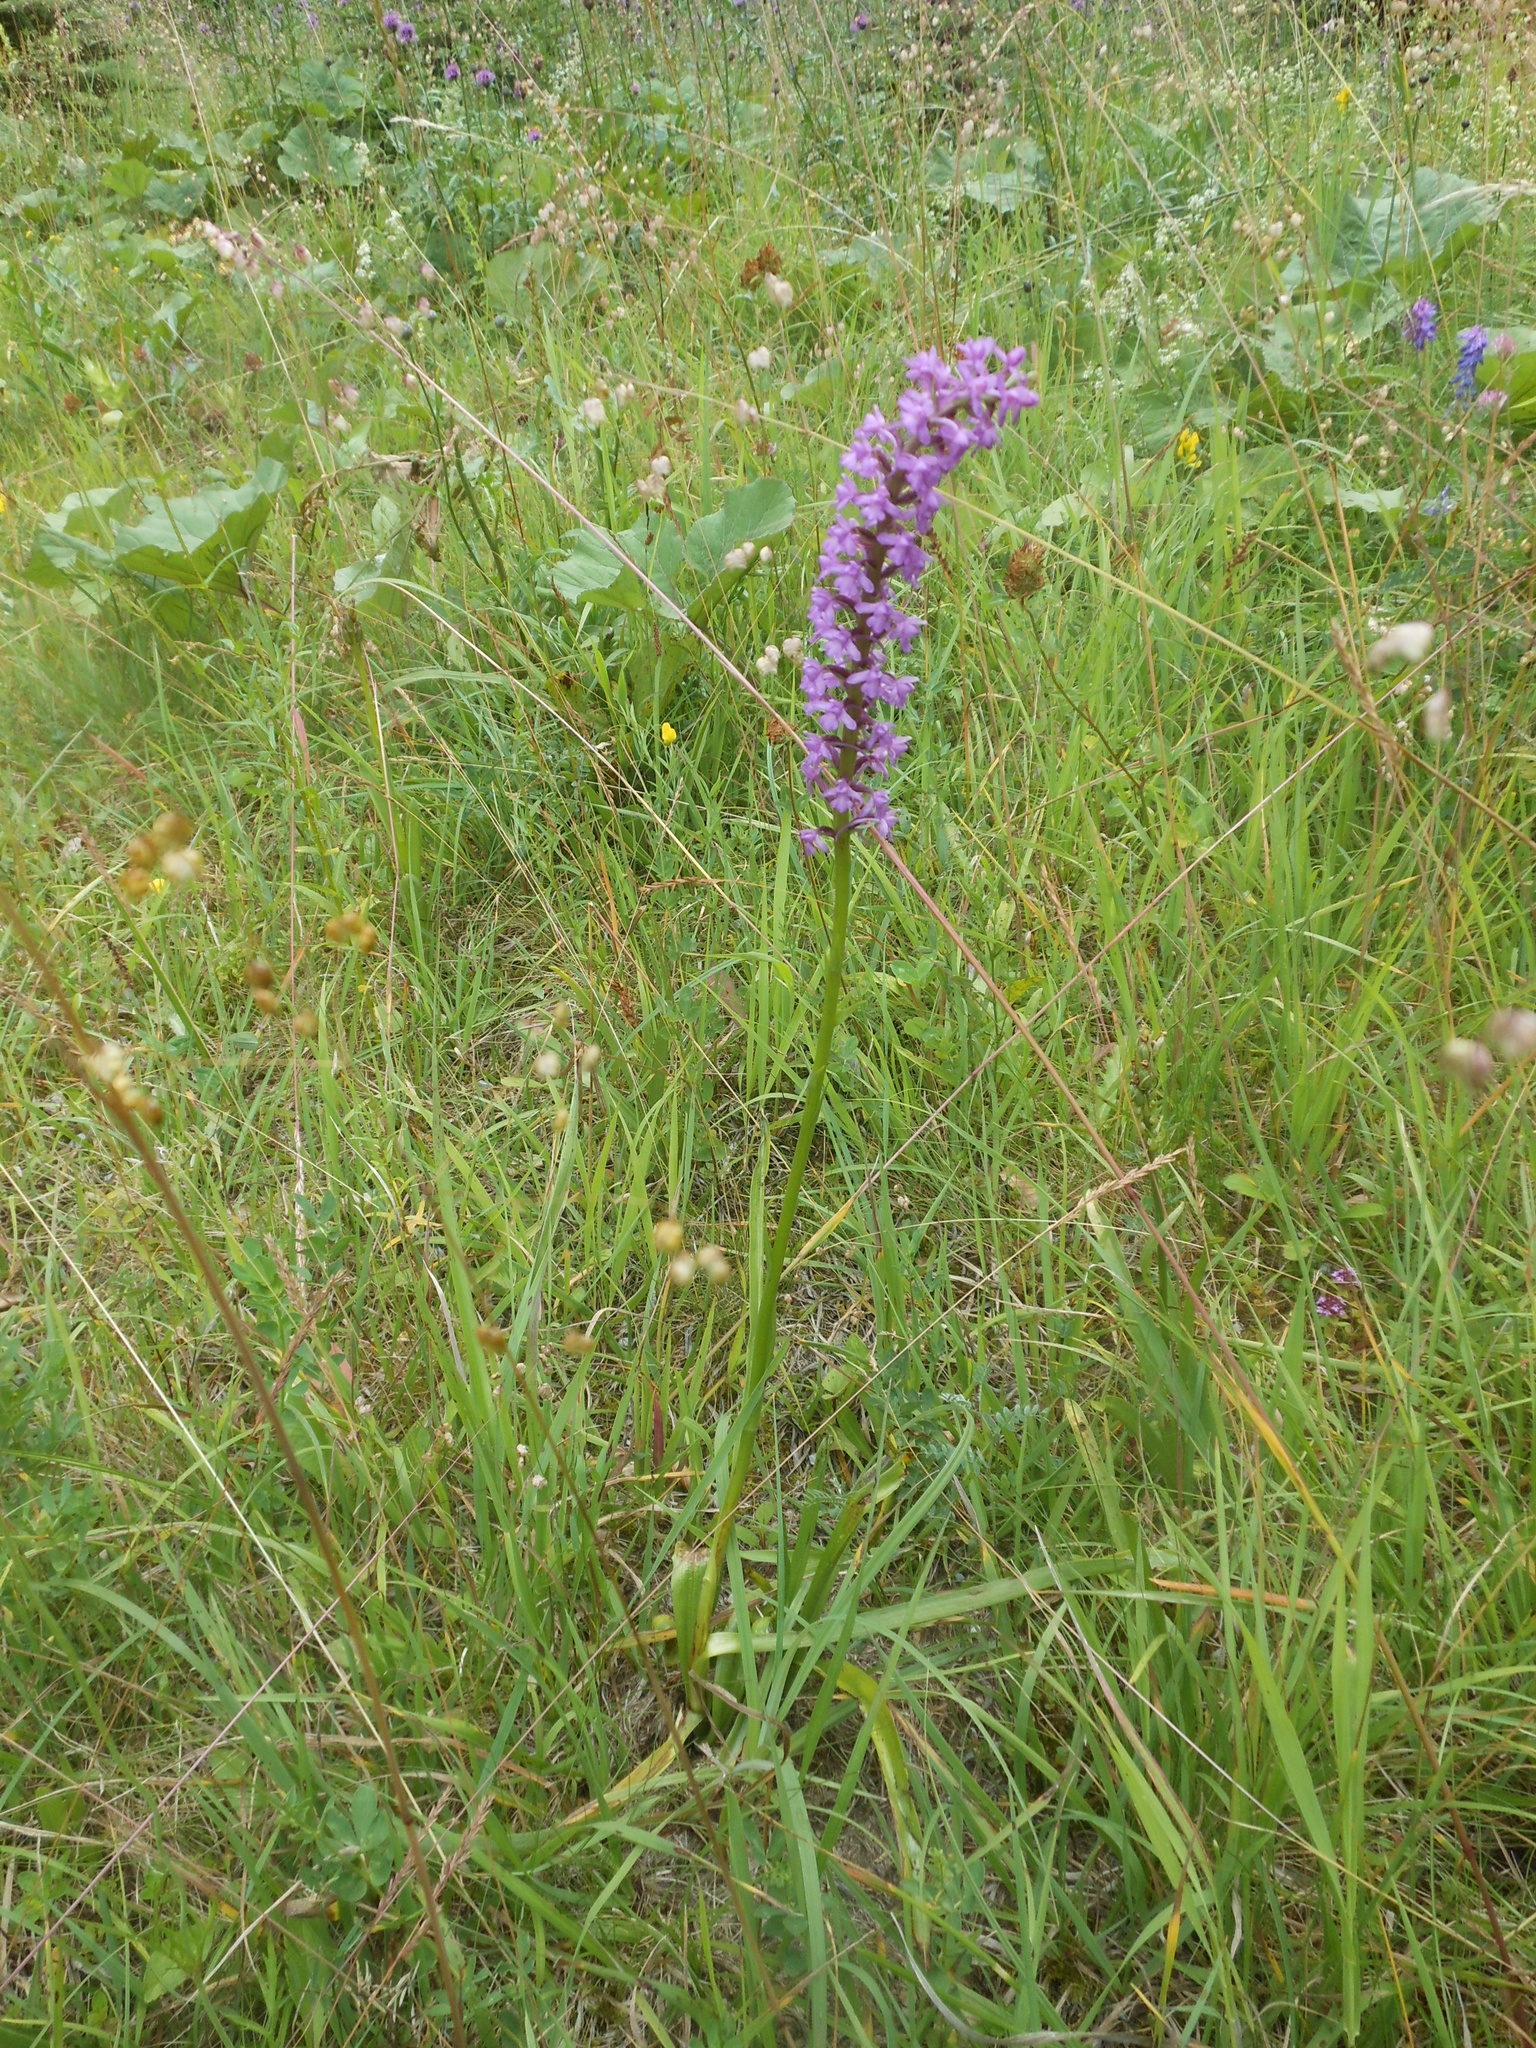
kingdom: Plantae
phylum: Tracheophyta
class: Liliopsida
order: Asparagales
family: Orchidaceae
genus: Gymnadenia
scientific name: Gymnadenia conopsea
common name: Fragrant orchid
